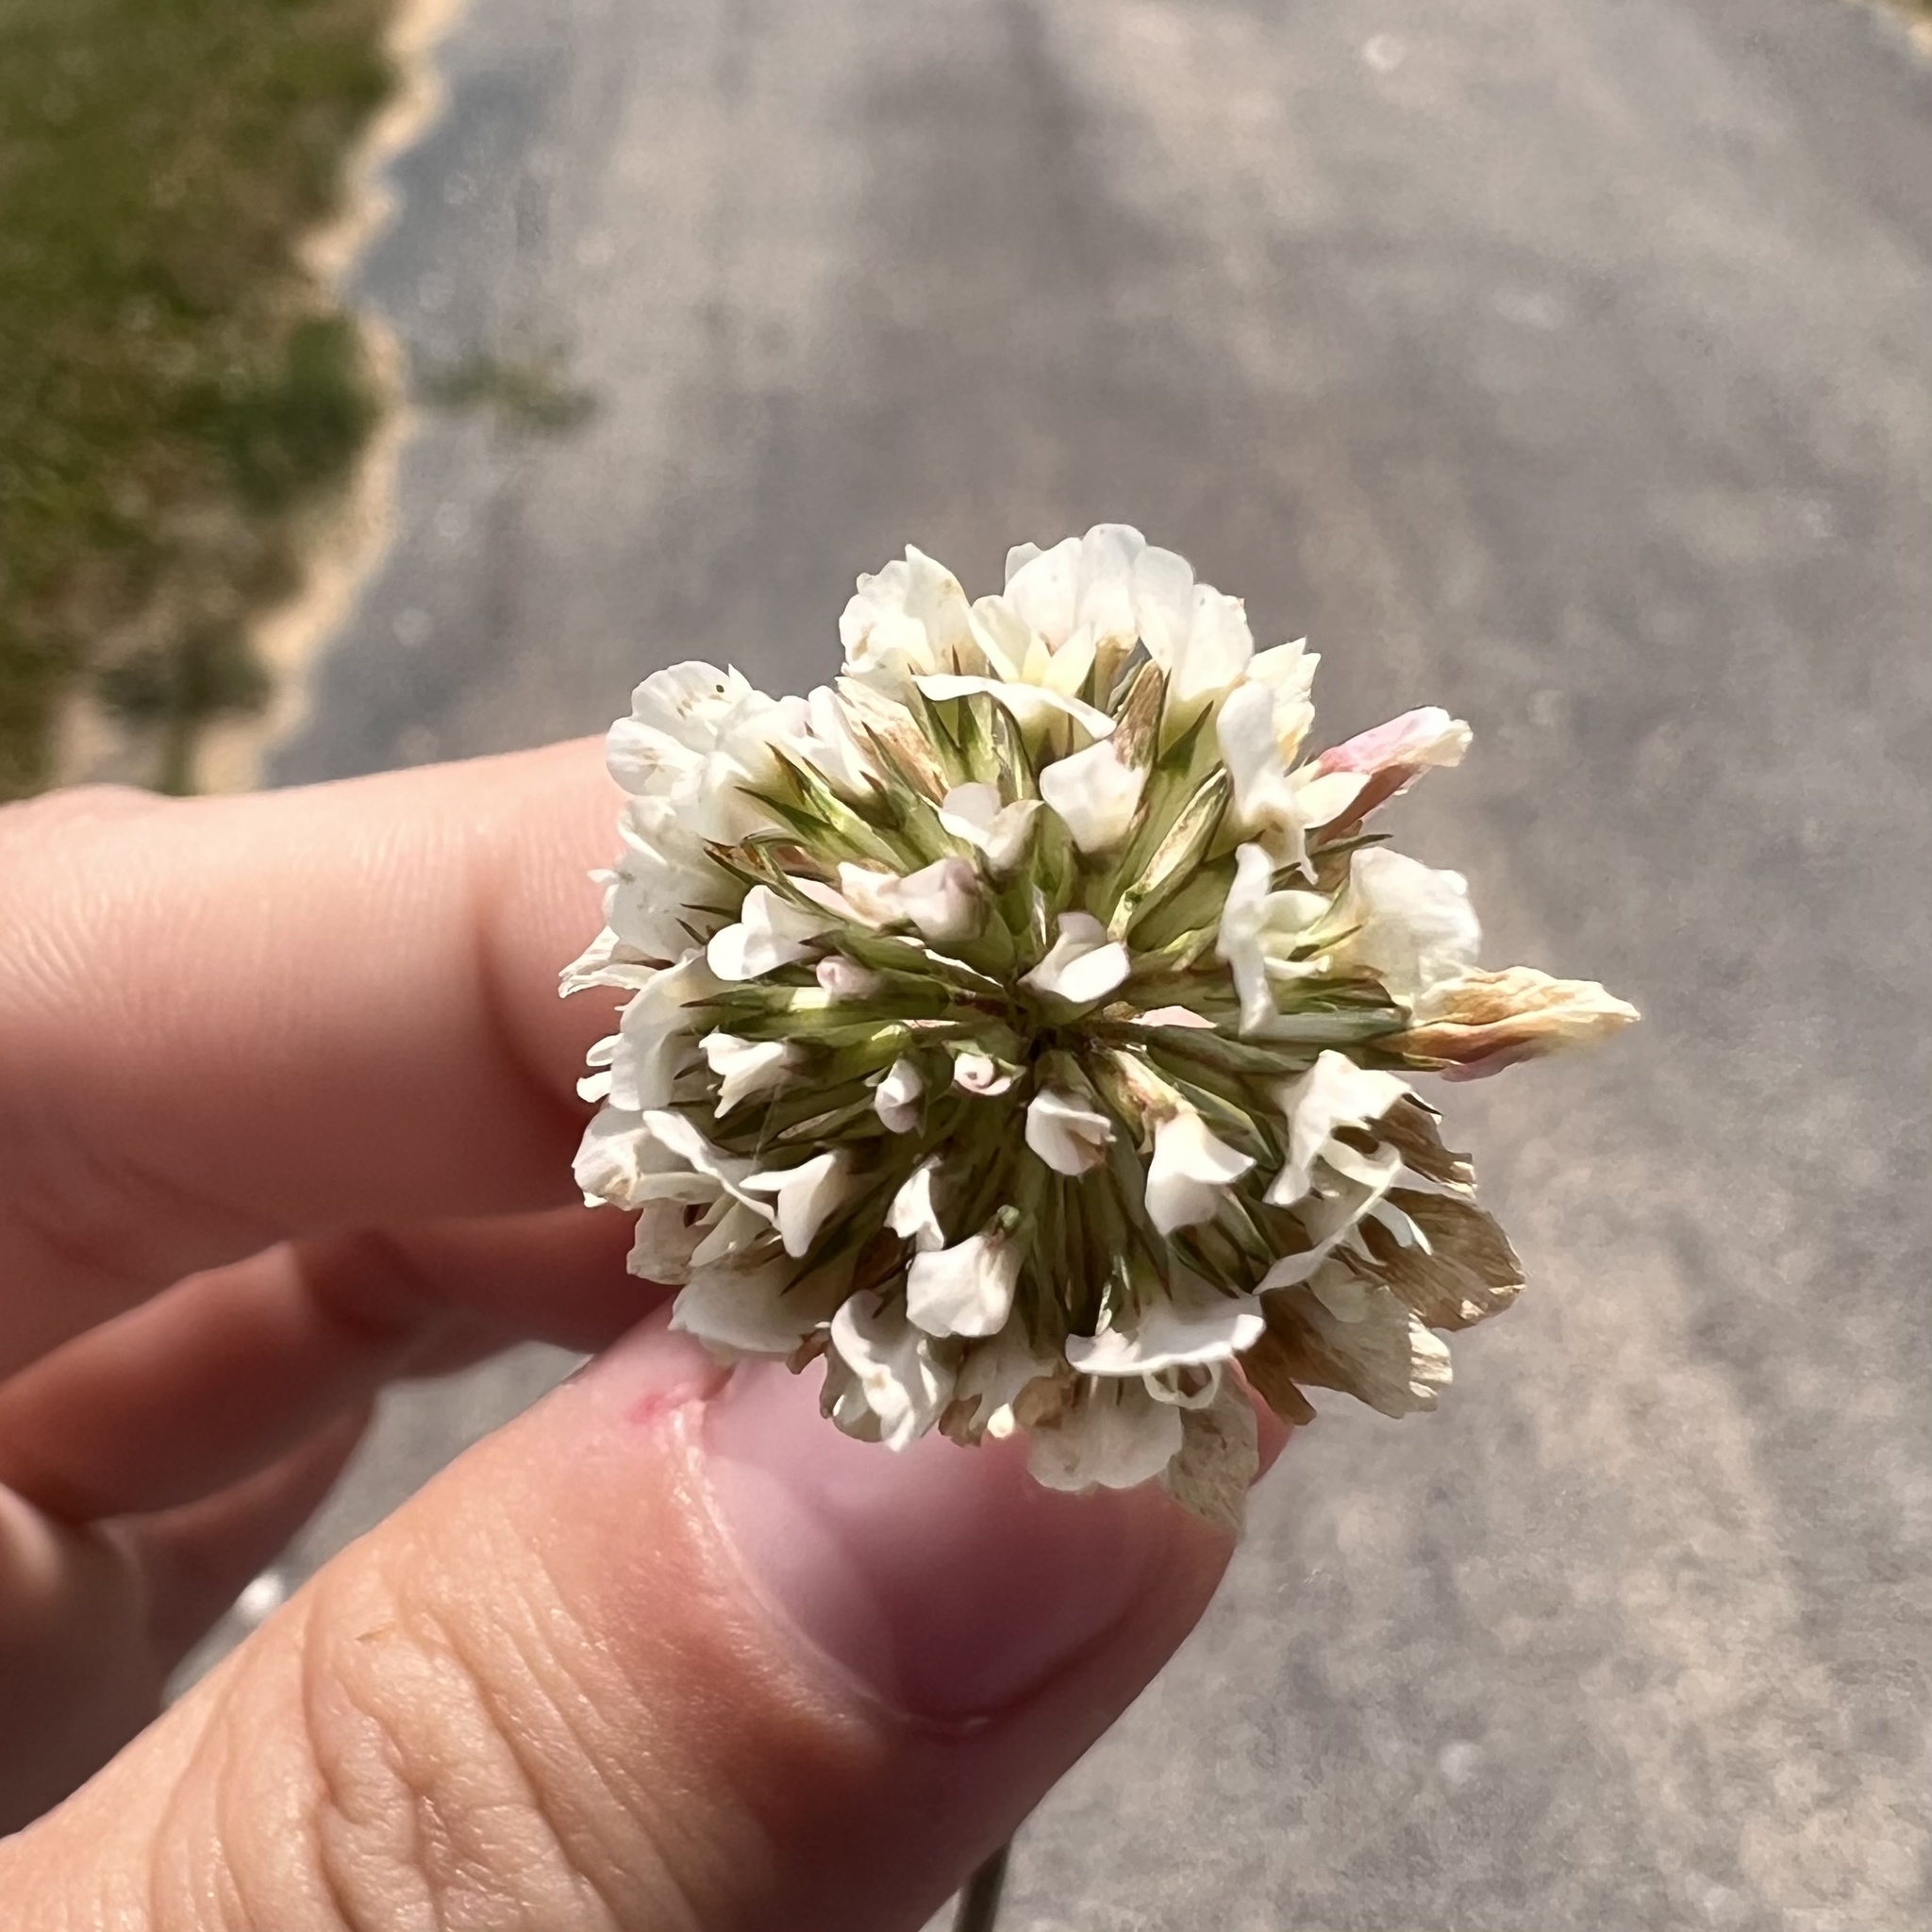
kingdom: Plantae
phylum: Tracheophyta
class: Magnoliopsida
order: Fabales
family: Fabaceae
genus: Trifolium
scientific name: Trifolium repens
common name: White clover
